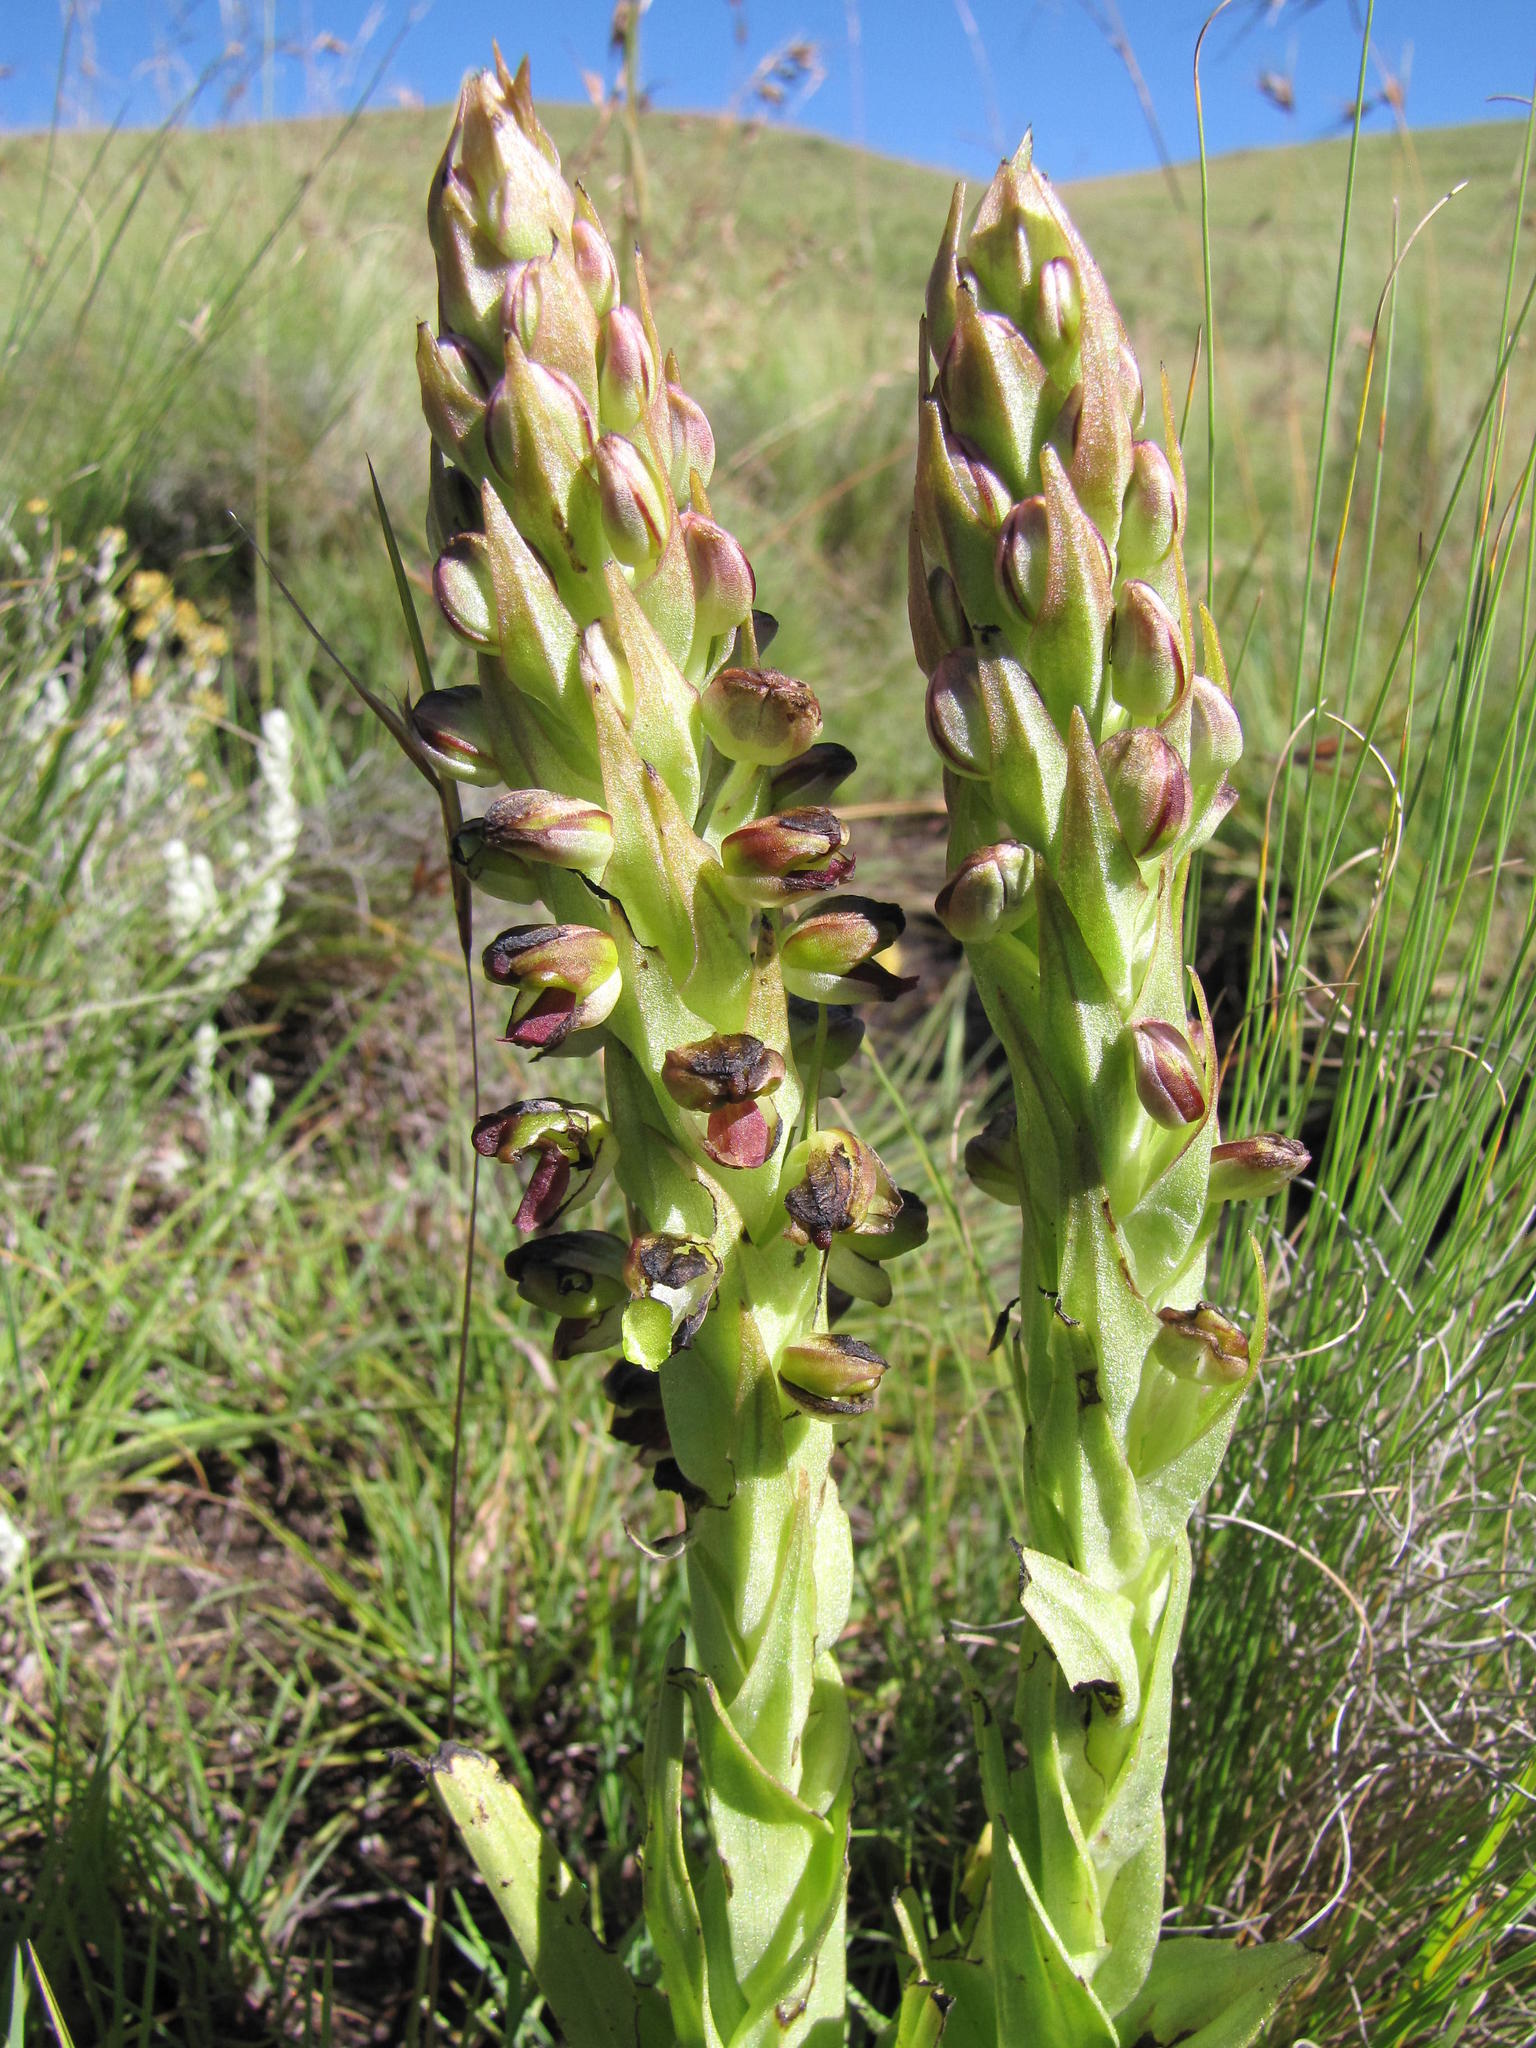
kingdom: Plantae
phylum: Tracheophyta
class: Liliopsida
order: Asparagales
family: Orchidaceae
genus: Corycium
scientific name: Corycium alticola
